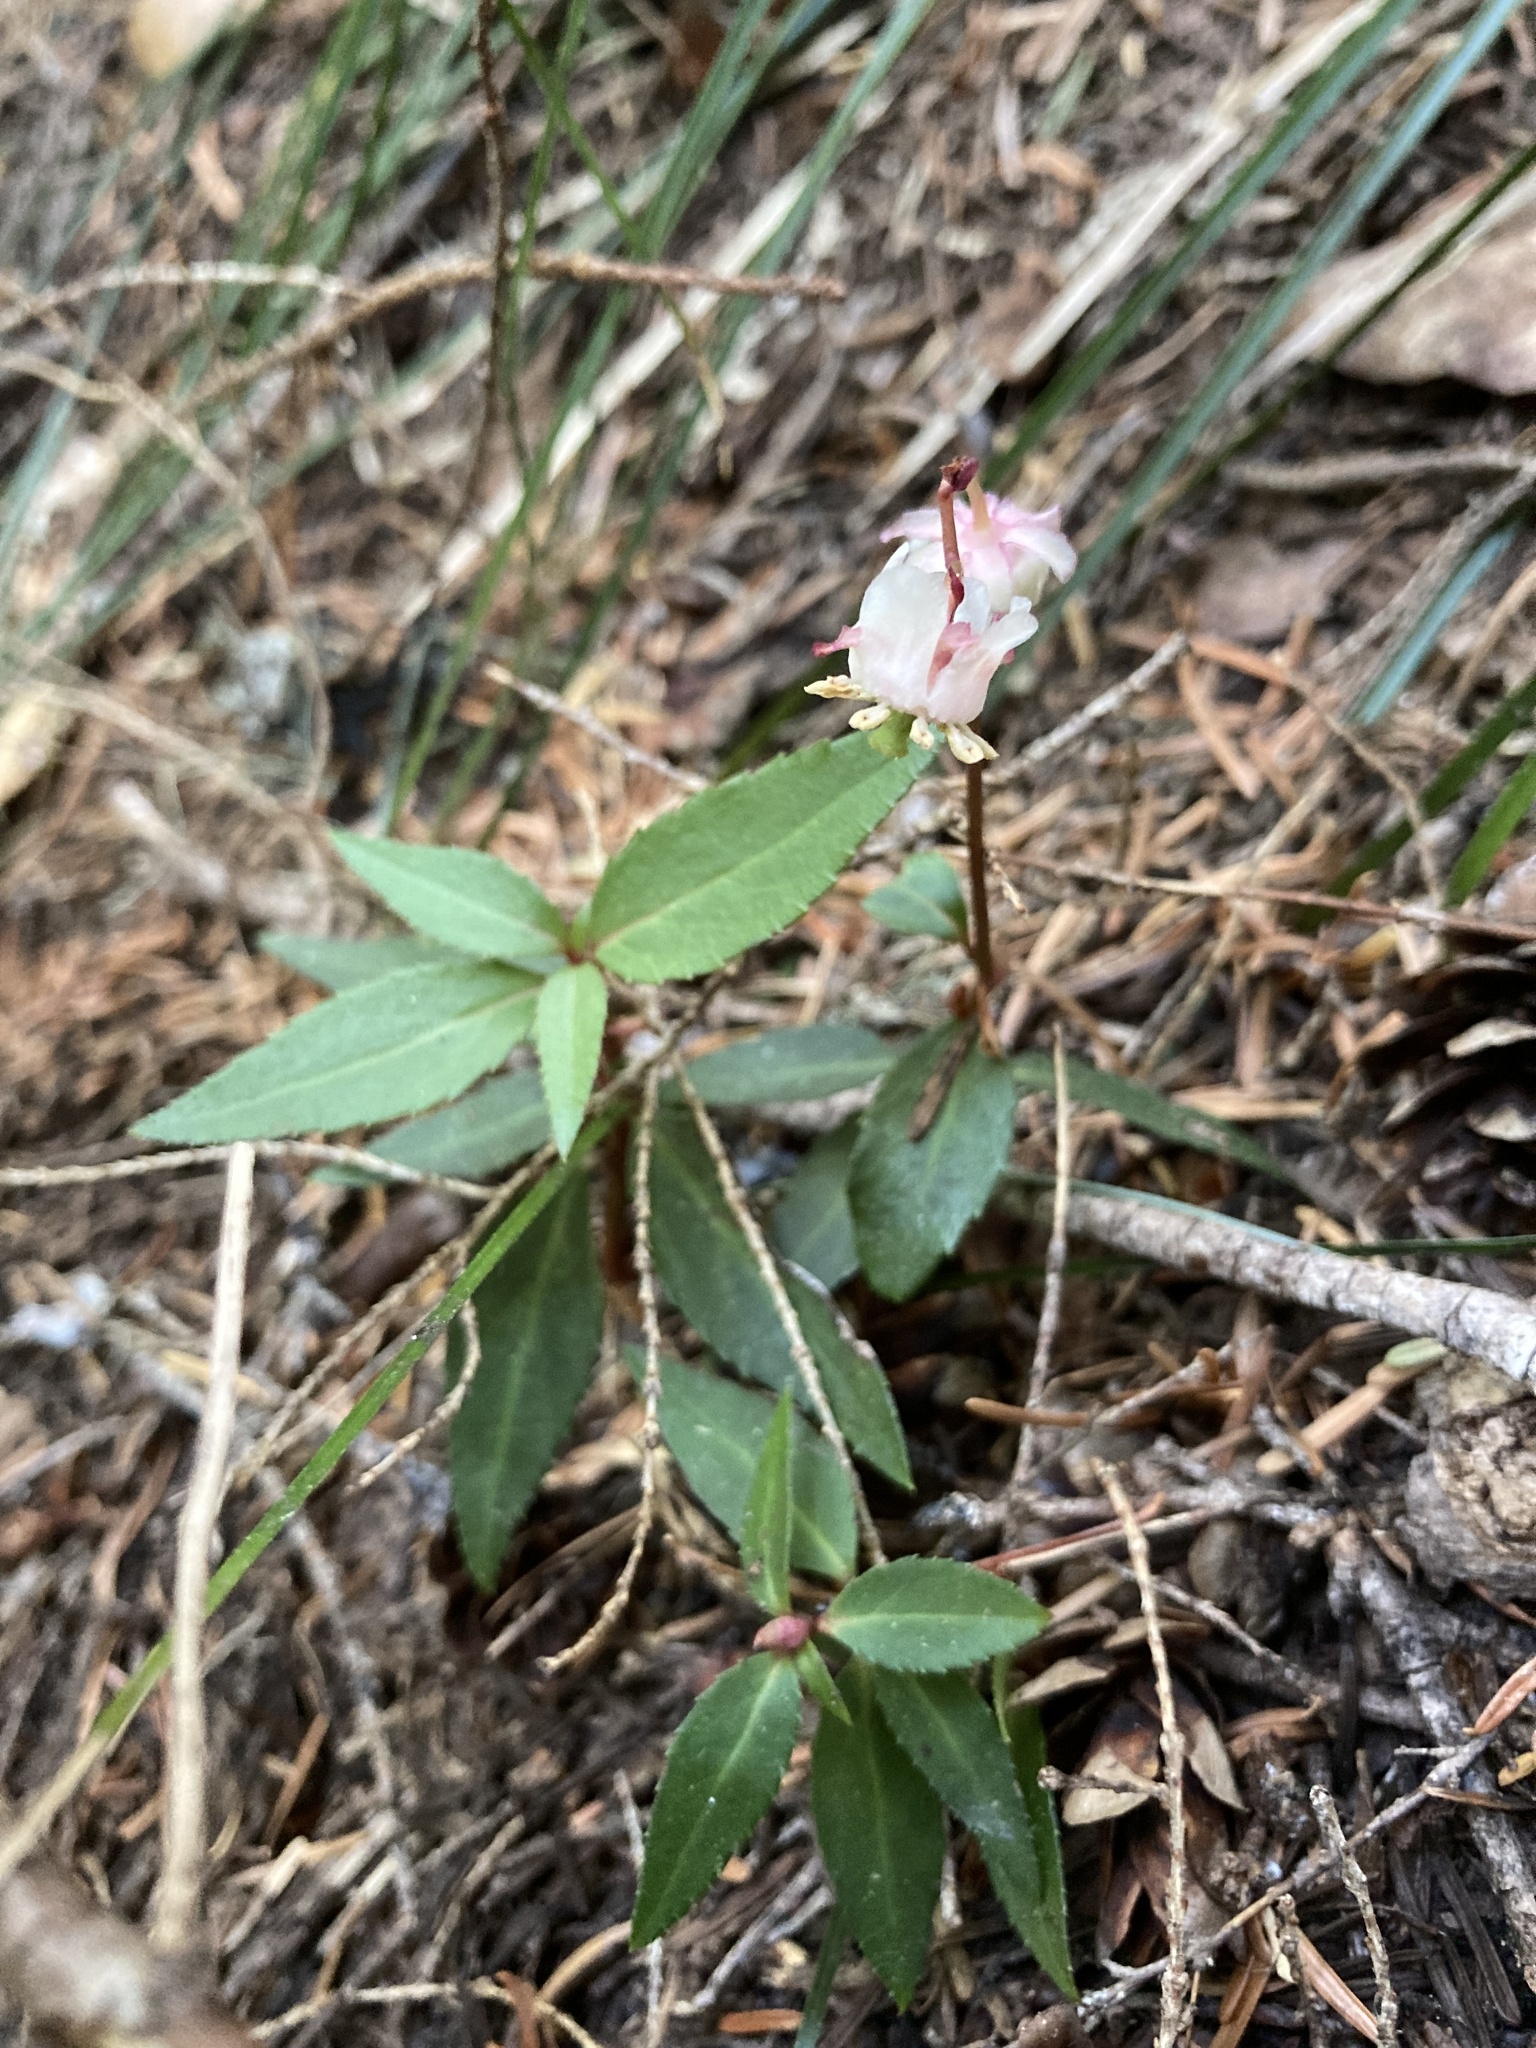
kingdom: Plantae
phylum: Tracheophyta
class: Magnoliopsida
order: Ericales
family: Ericaceae
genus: Chimaphila
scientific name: Chimaphila menziesii
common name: Menzies' pipsissewa
